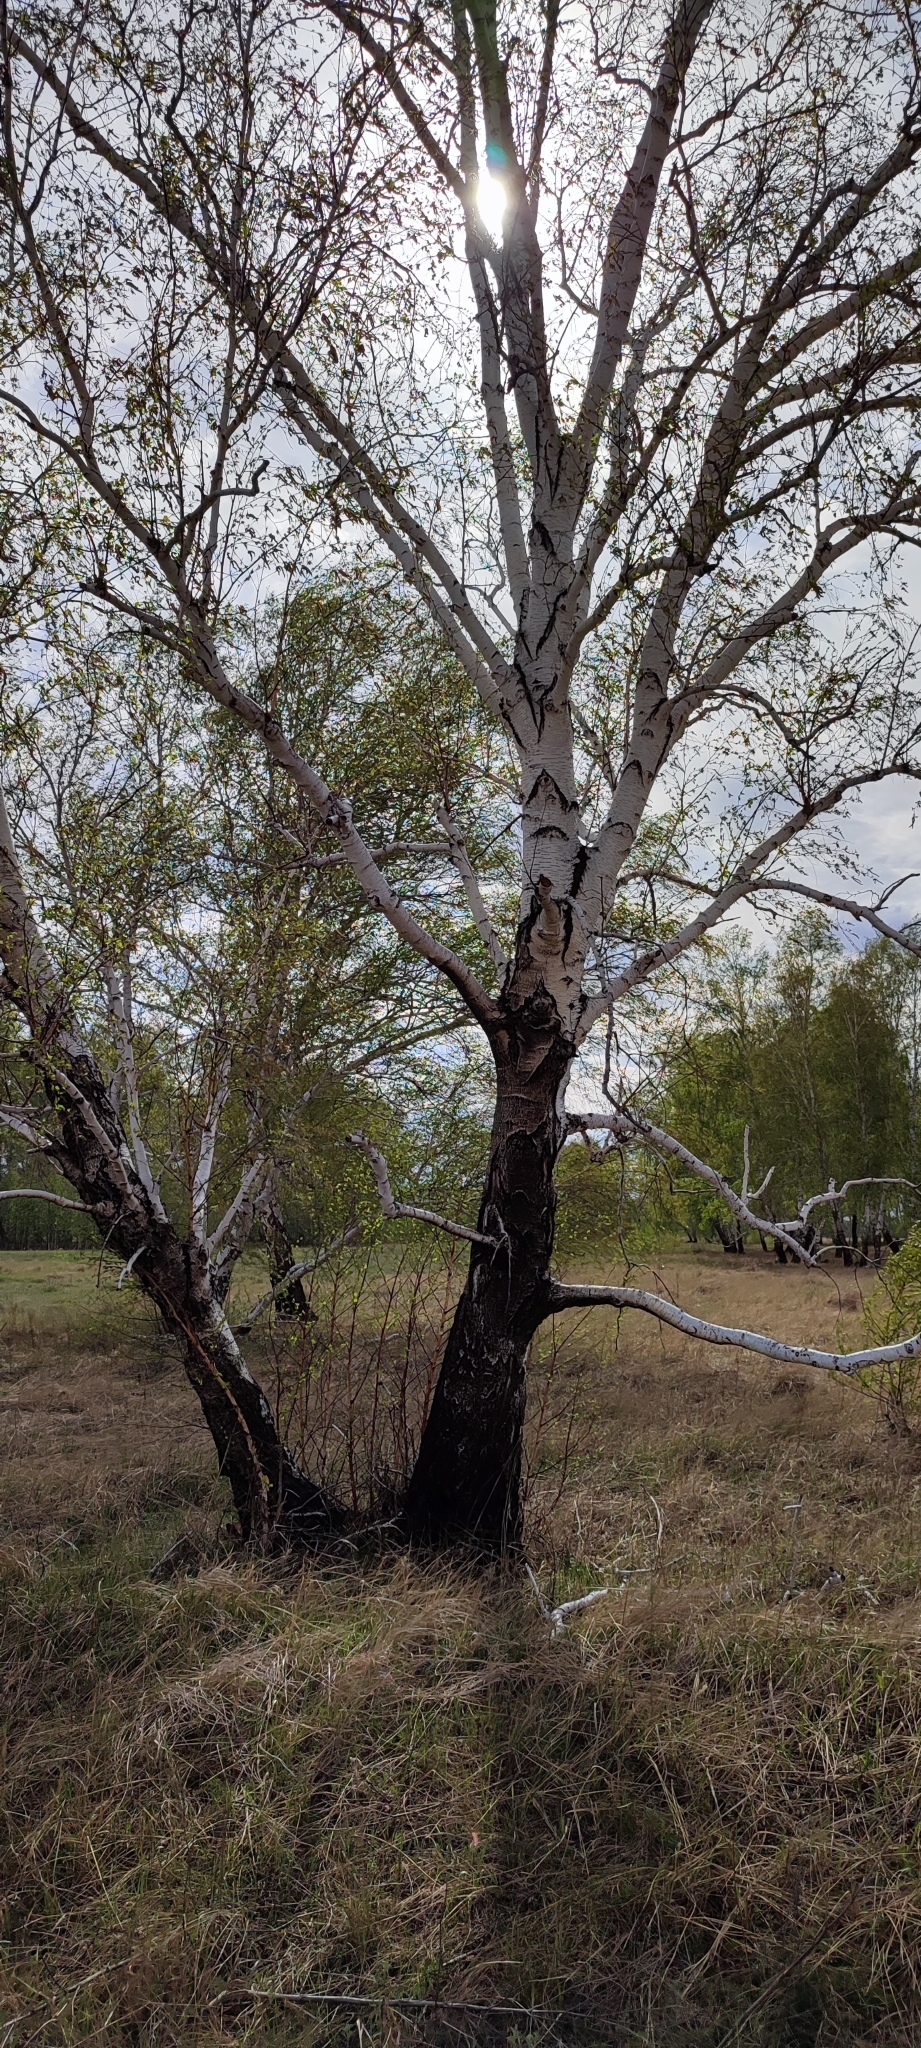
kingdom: Plantae
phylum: Tracheophyta
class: Magnoliopsida
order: Fagales
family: Betulaceae
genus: Betula
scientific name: Betula pendula
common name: Silver birch
